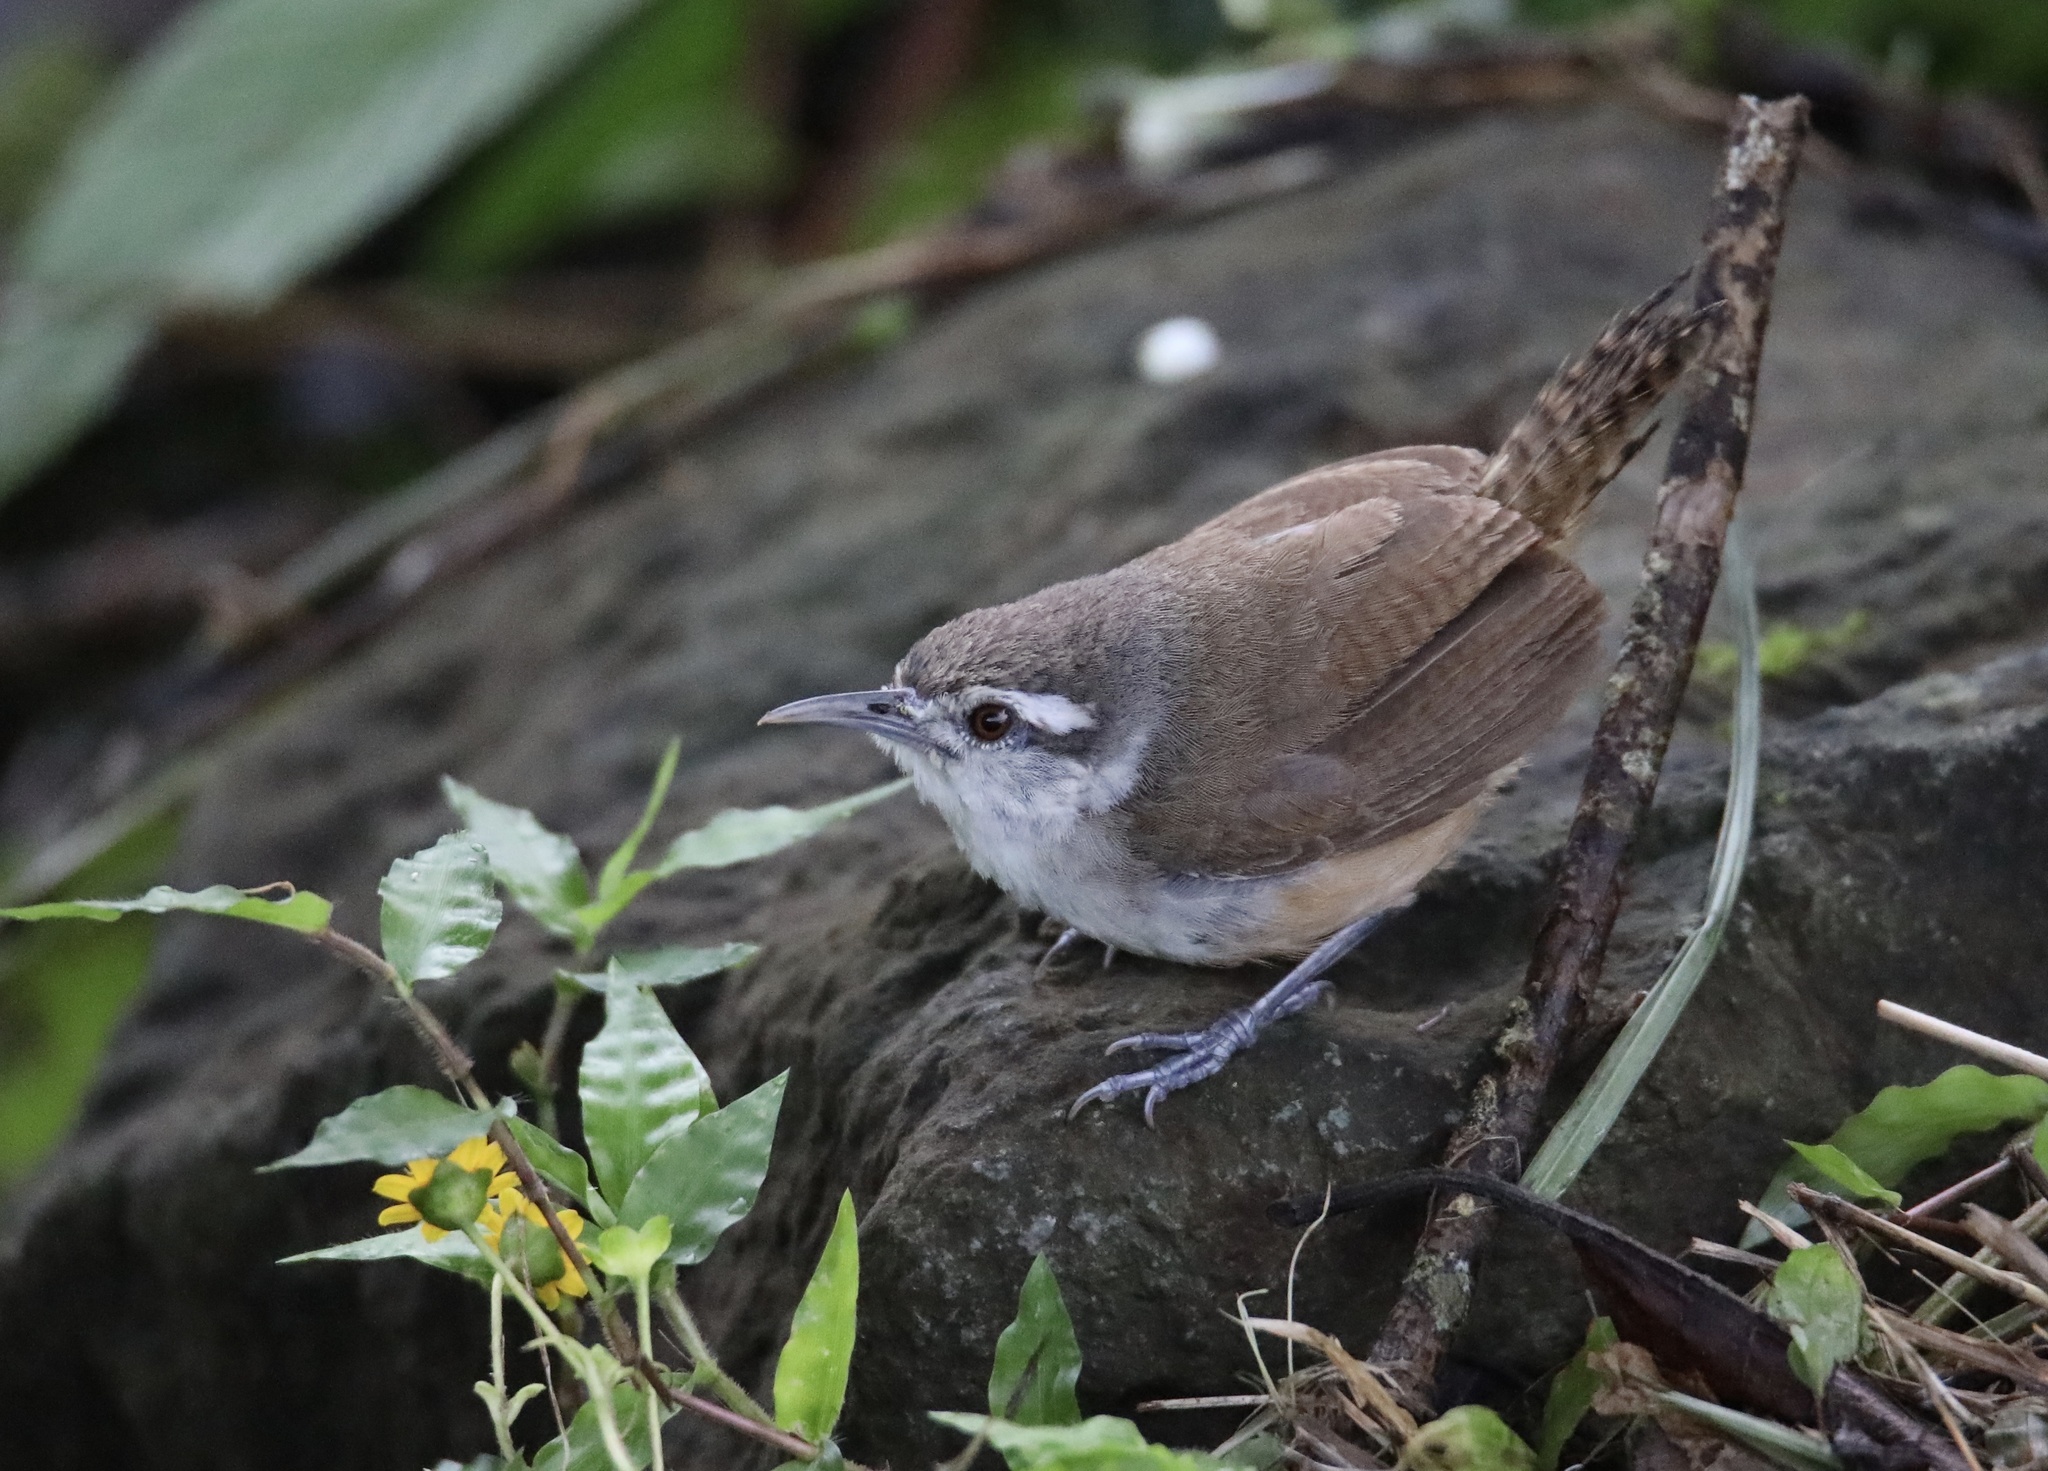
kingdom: Animalia
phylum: Chordata
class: Aves
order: Passeriformes
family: Troglodytidae
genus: Cantorchilus
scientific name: Cantorchilus modestus
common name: Cabanis's wren
